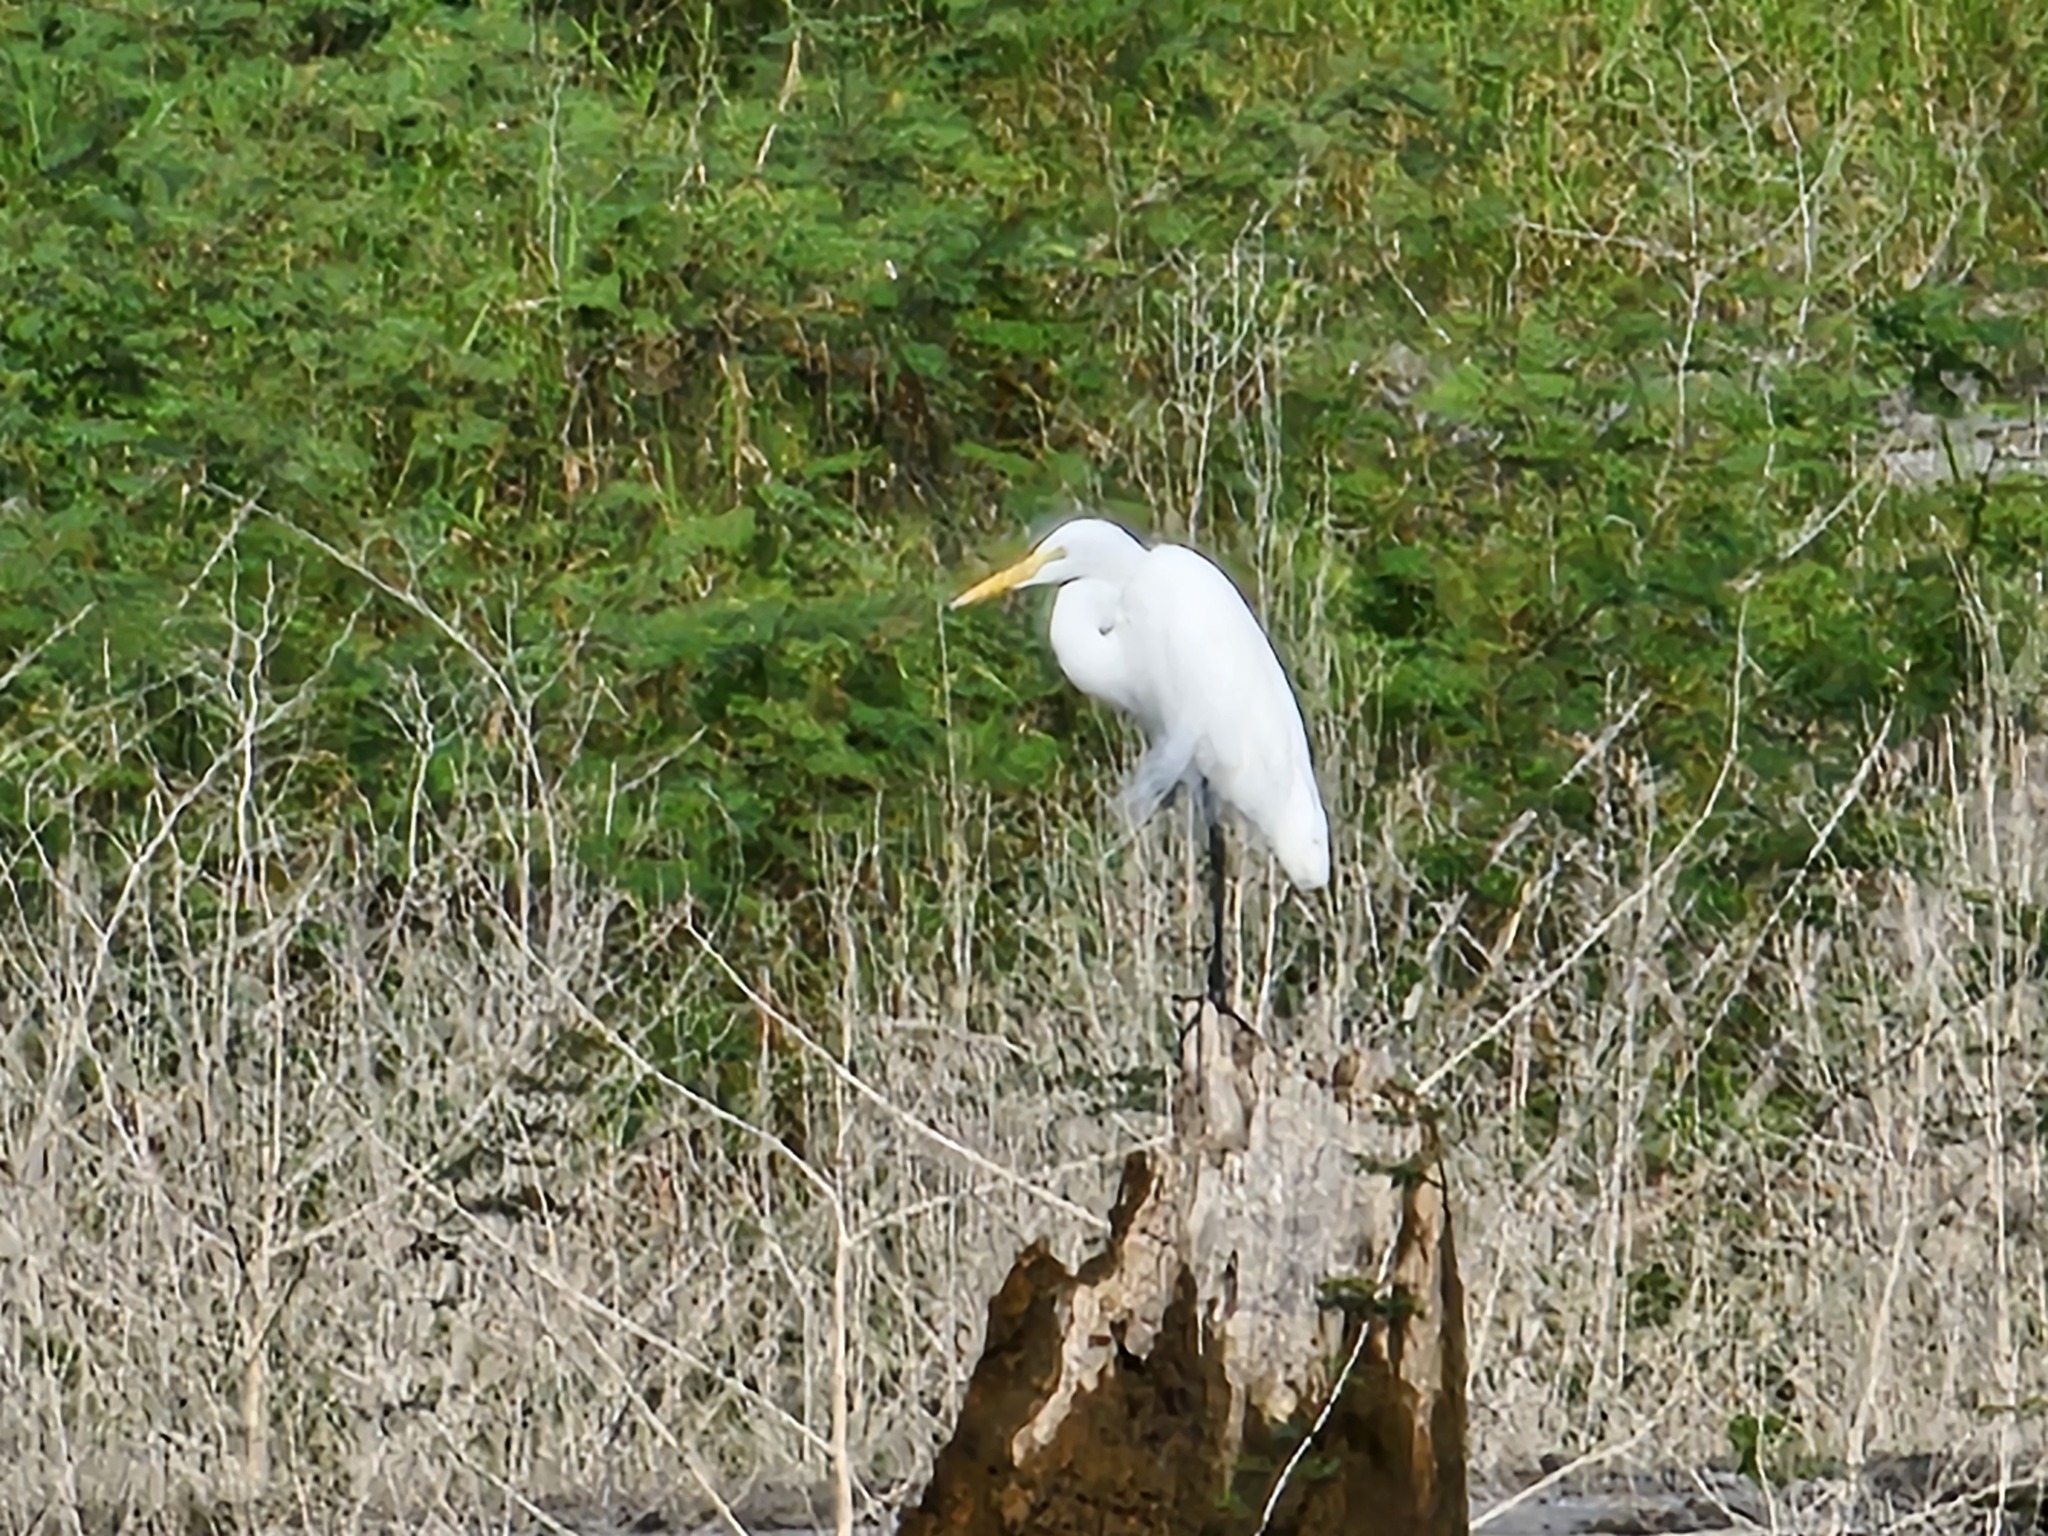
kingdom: Animalia
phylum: Chordata
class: Aves
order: Pelecaniformes
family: Ardeidae
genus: Ardea
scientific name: Ardea alba
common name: Great egret
